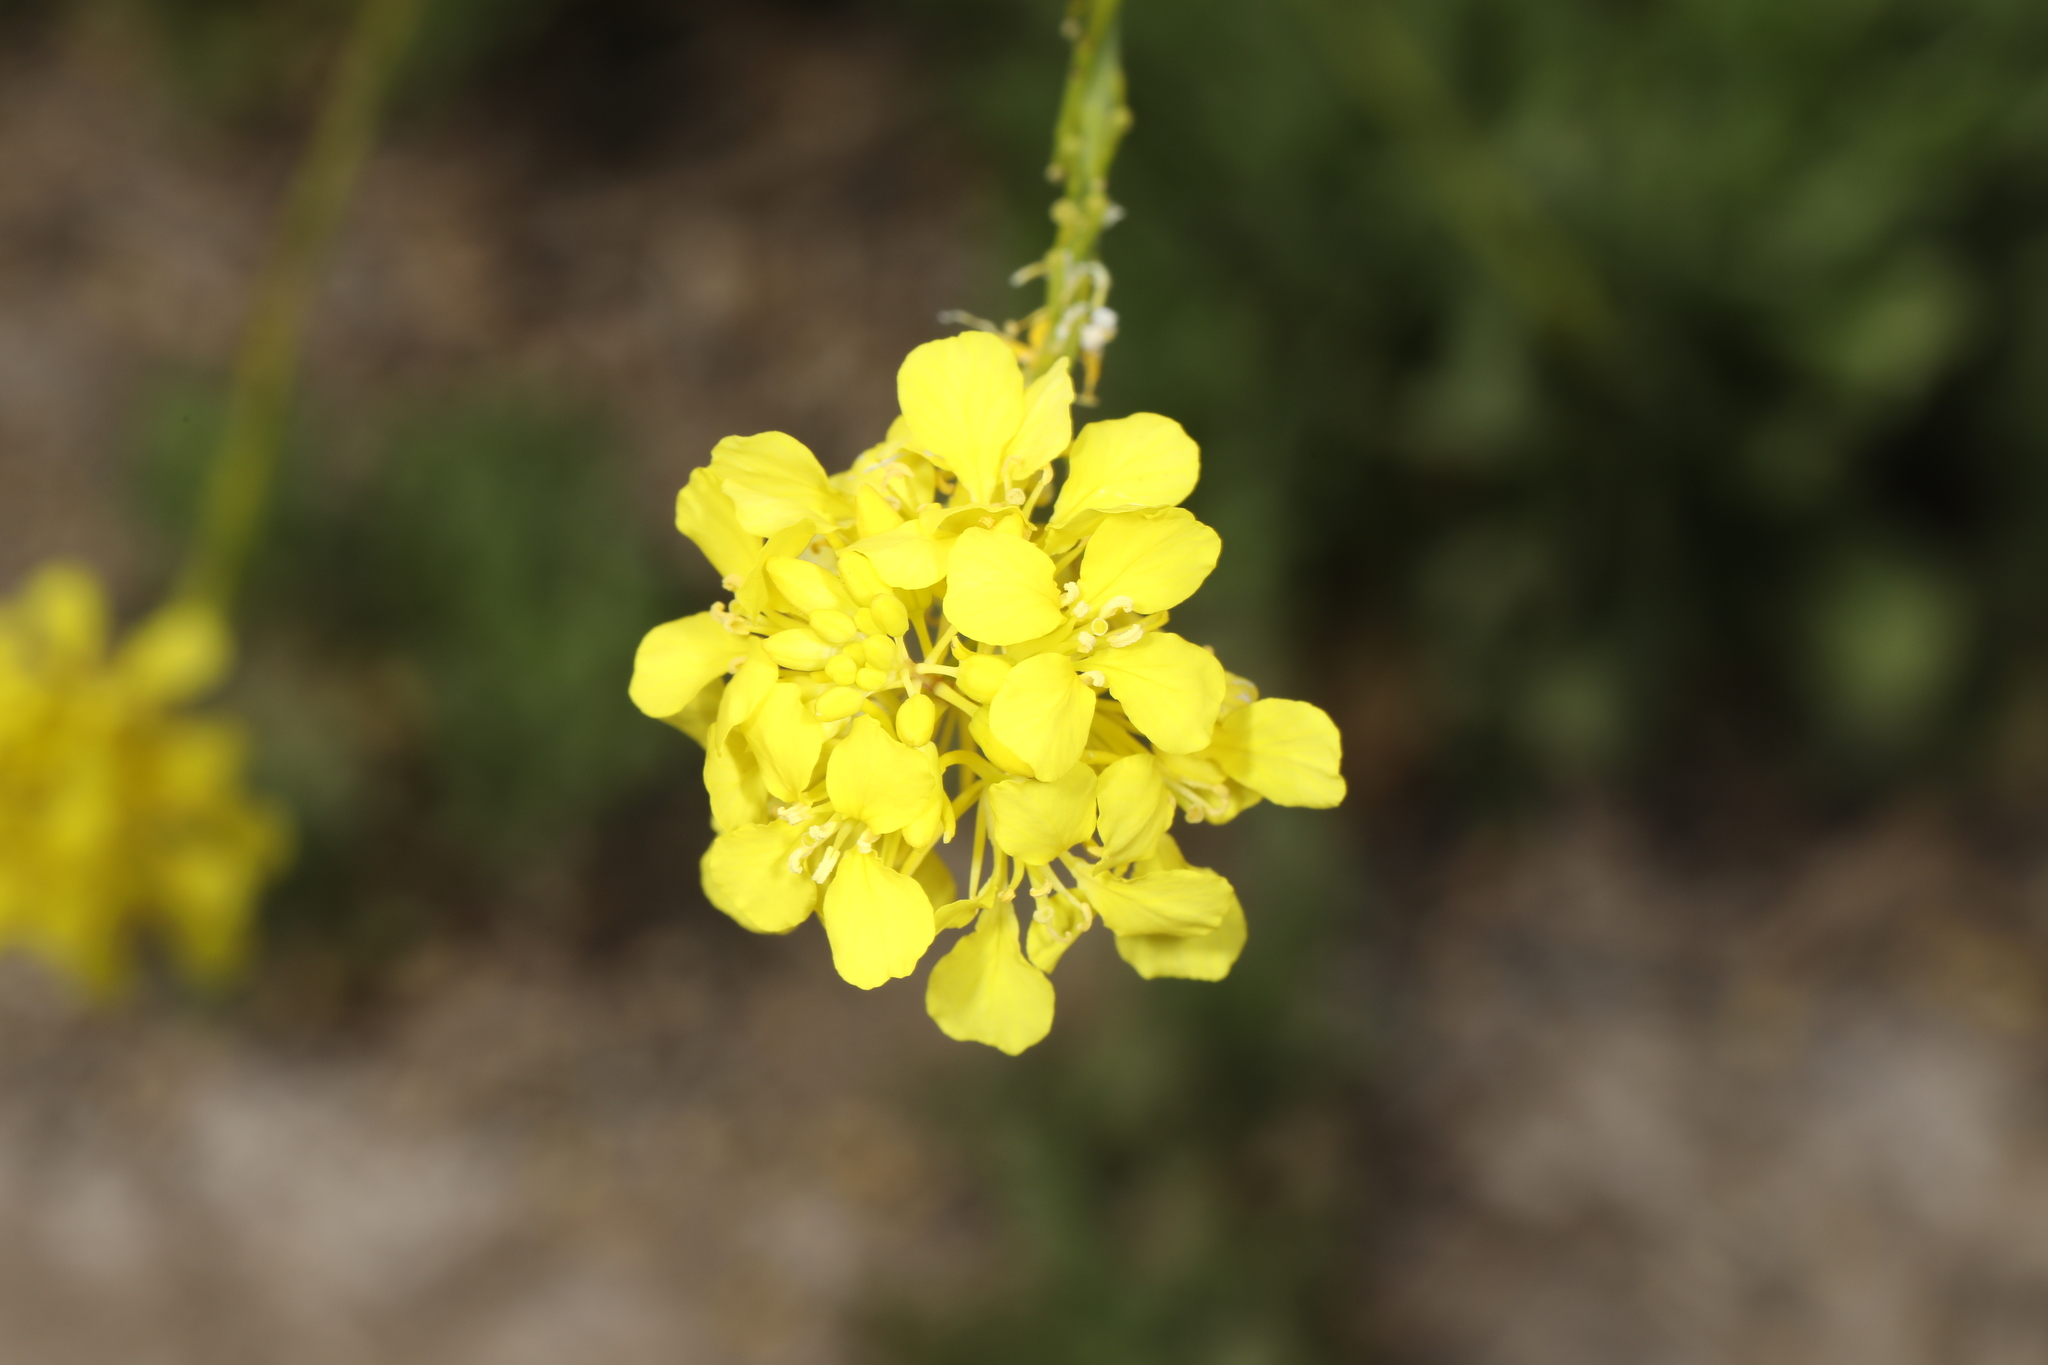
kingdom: Plantae
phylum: Tracheophyta
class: Magnoliopsida
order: Brassicales
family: Brassicaceae
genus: Hirschfeldia
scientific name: Hirschfeldia incana
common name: Hoary mustard
